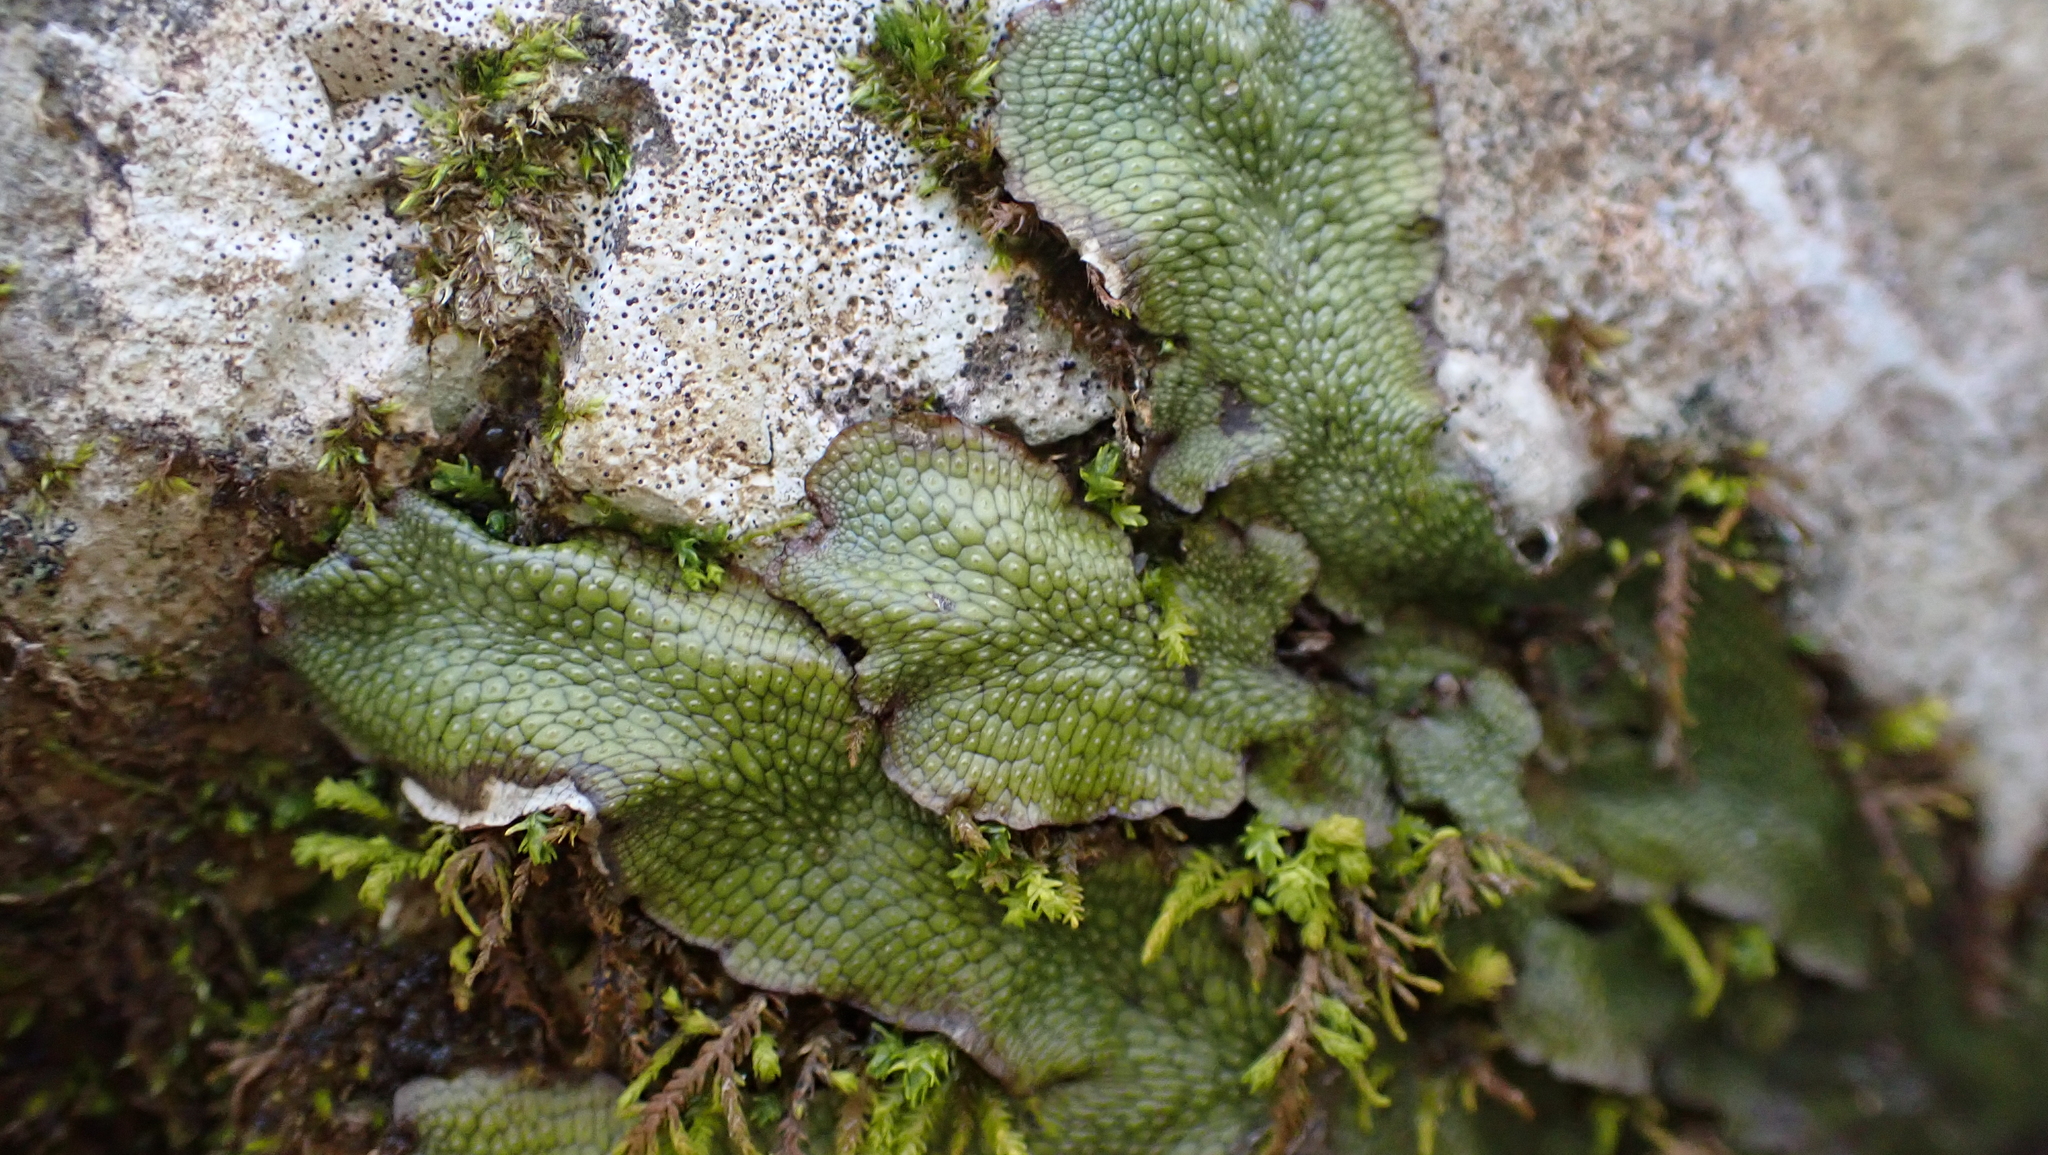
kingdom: Plantae
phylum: Marchantiophyta
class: Marchantiopsida
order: Marchantiales
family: Conocephalaceae
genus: Conocephalum
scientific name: Conocephalum salebrosum
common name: Cat-tongue liverwort
